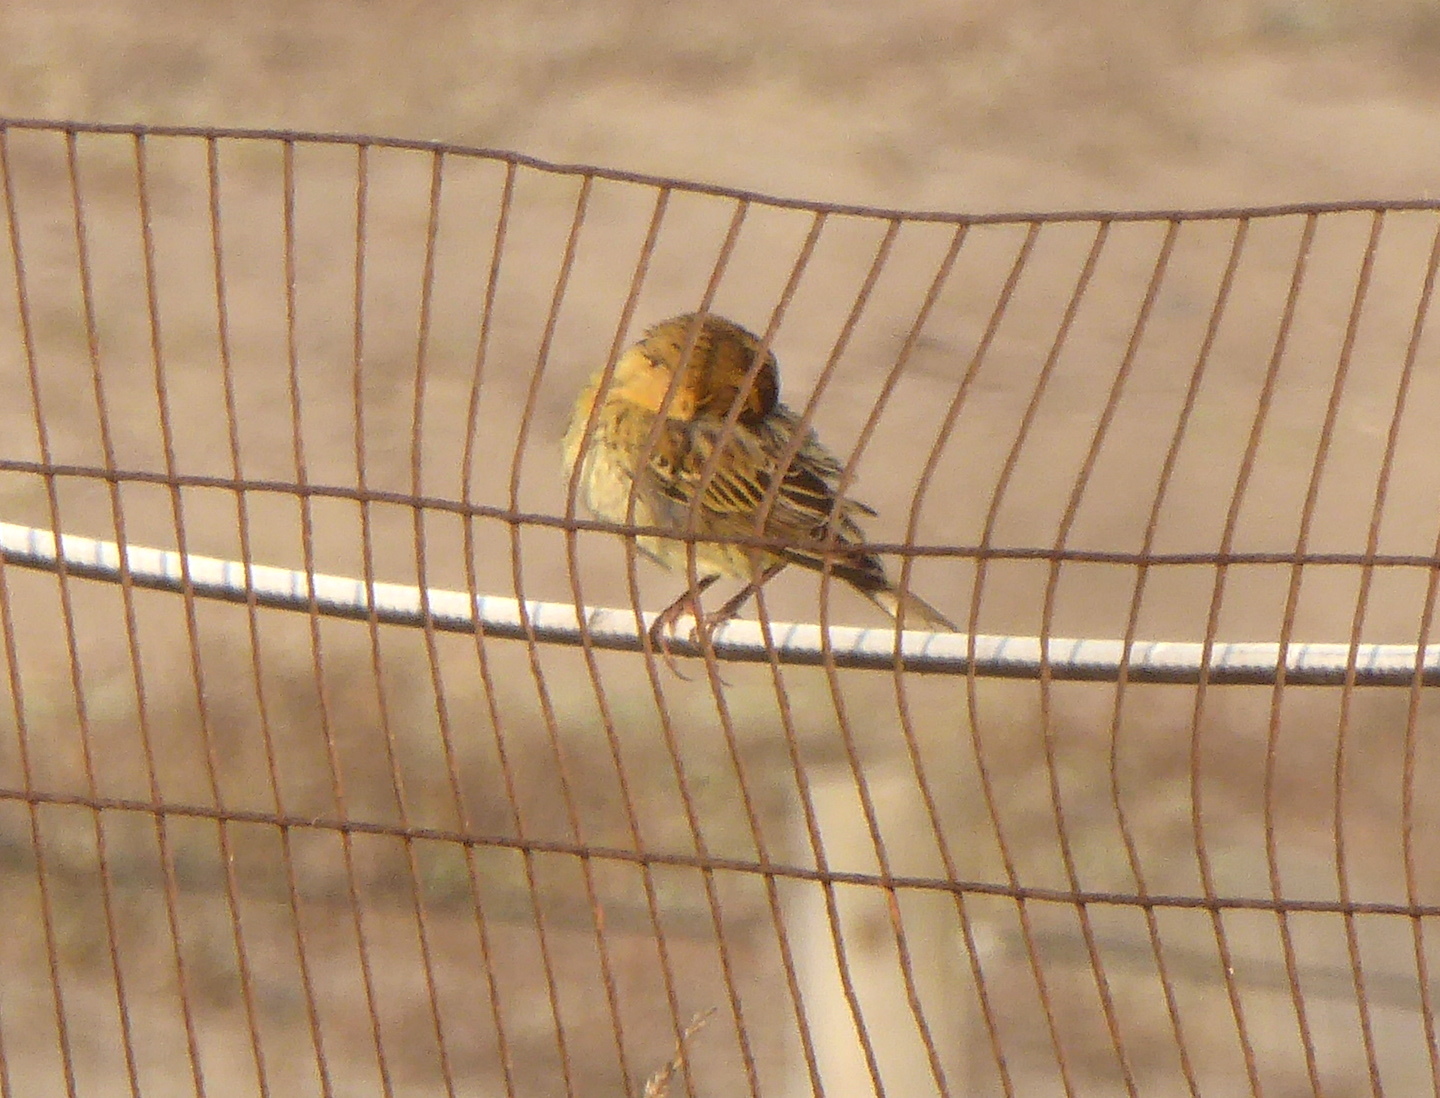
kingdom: Animalia
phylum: Chordata
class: Aves
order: Passeriformes
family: Icteridae
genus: Dolichonyx
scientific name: Dolichonyx oryzivorus
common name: Bobolink
